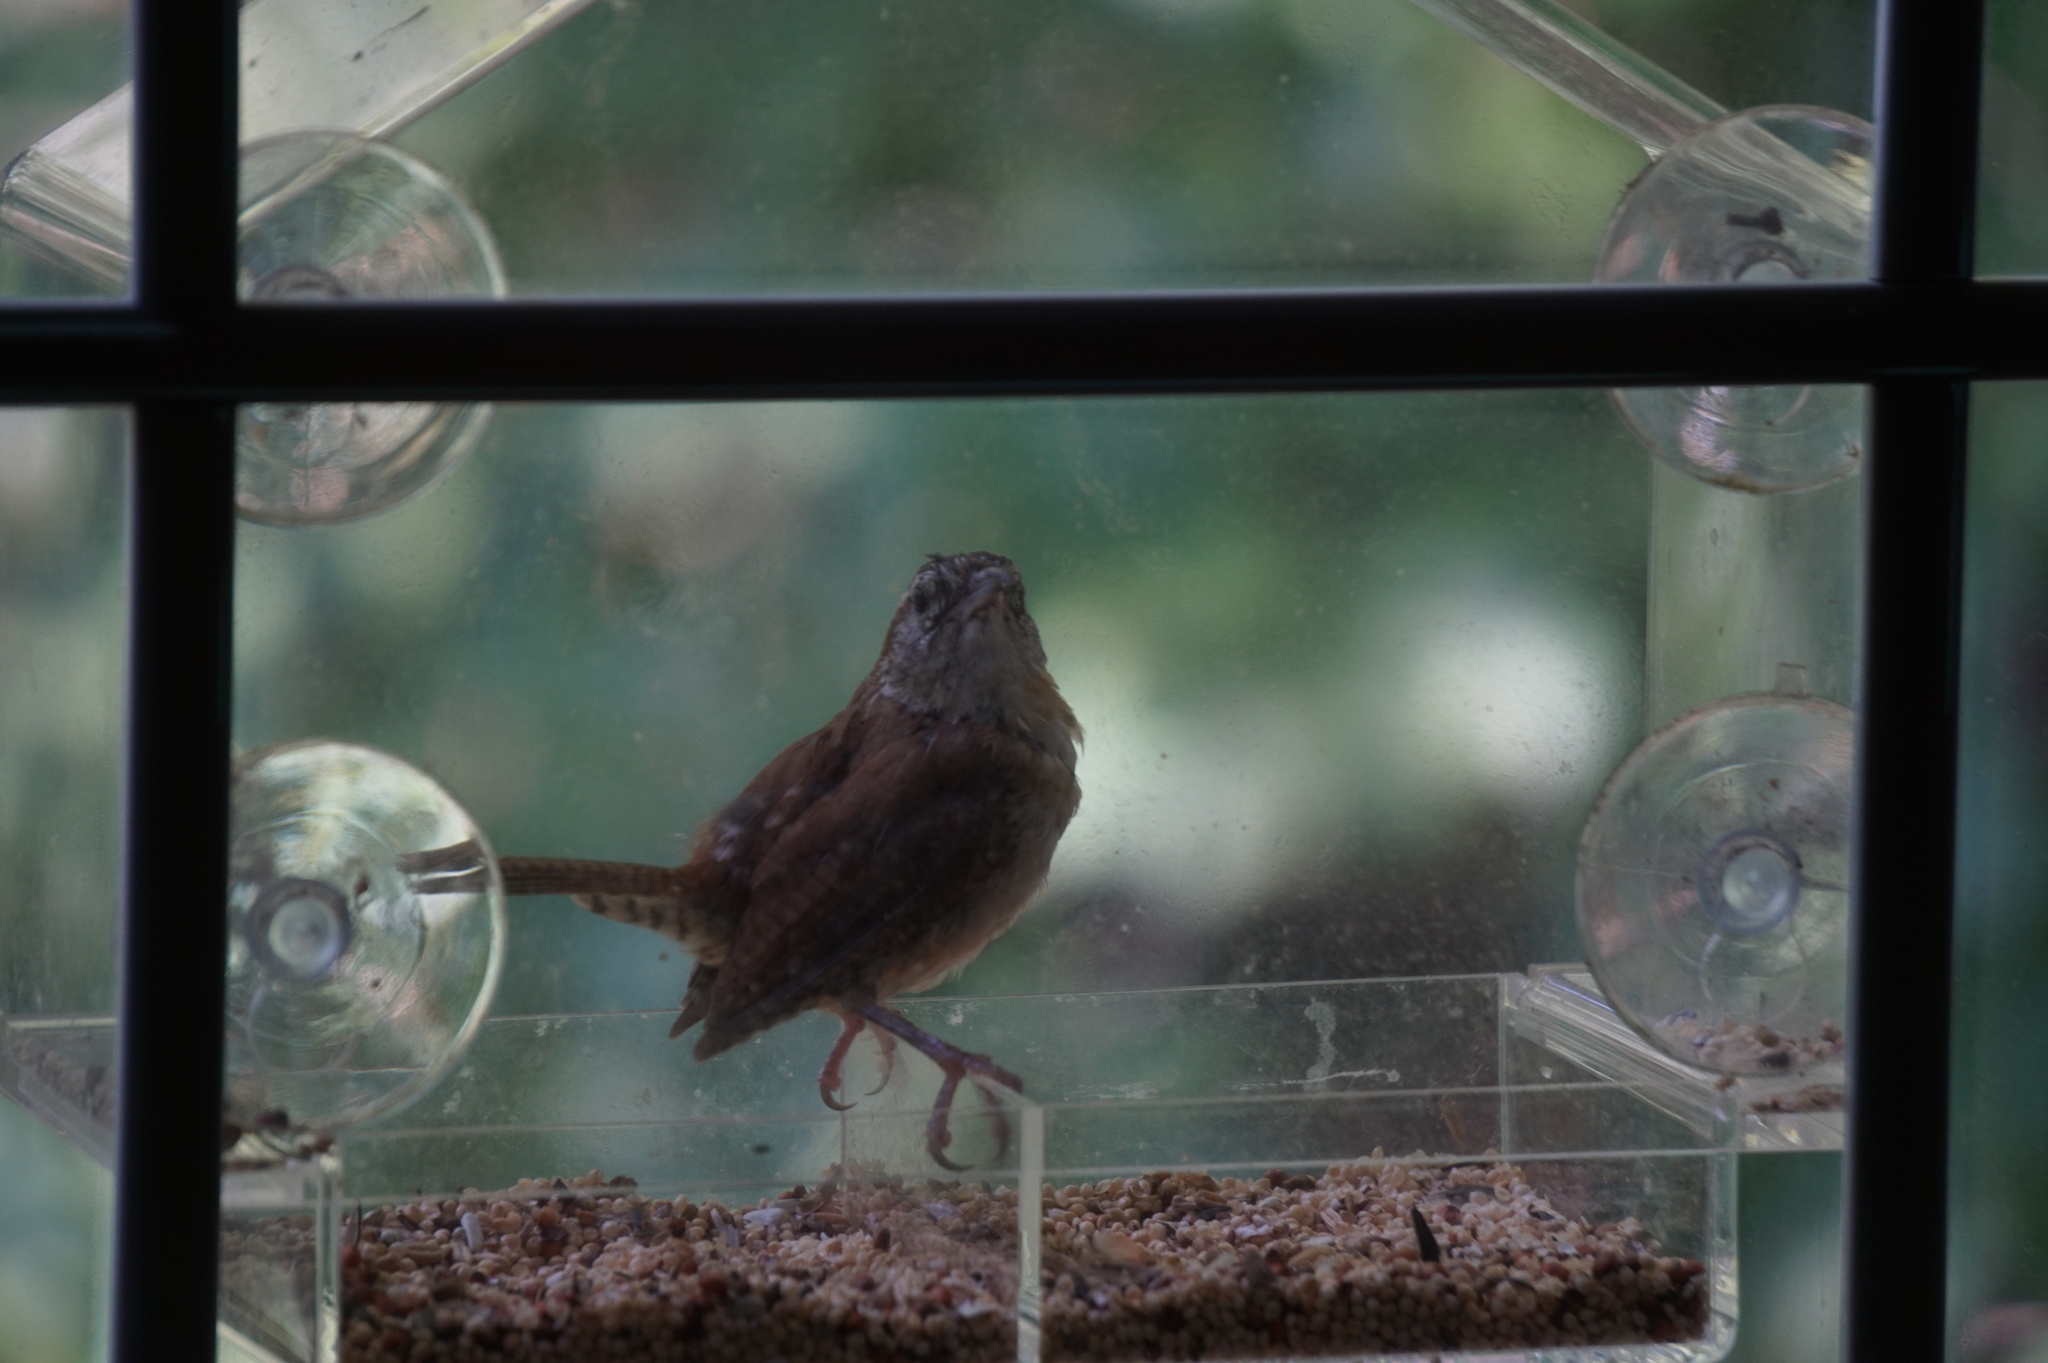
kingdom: Animalia
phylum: Chordata
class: Aves
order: Passeriformes
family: Troglodytidae
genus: Thryothorus
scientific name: Thryothorus ludovicianus
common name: Carolina wren
